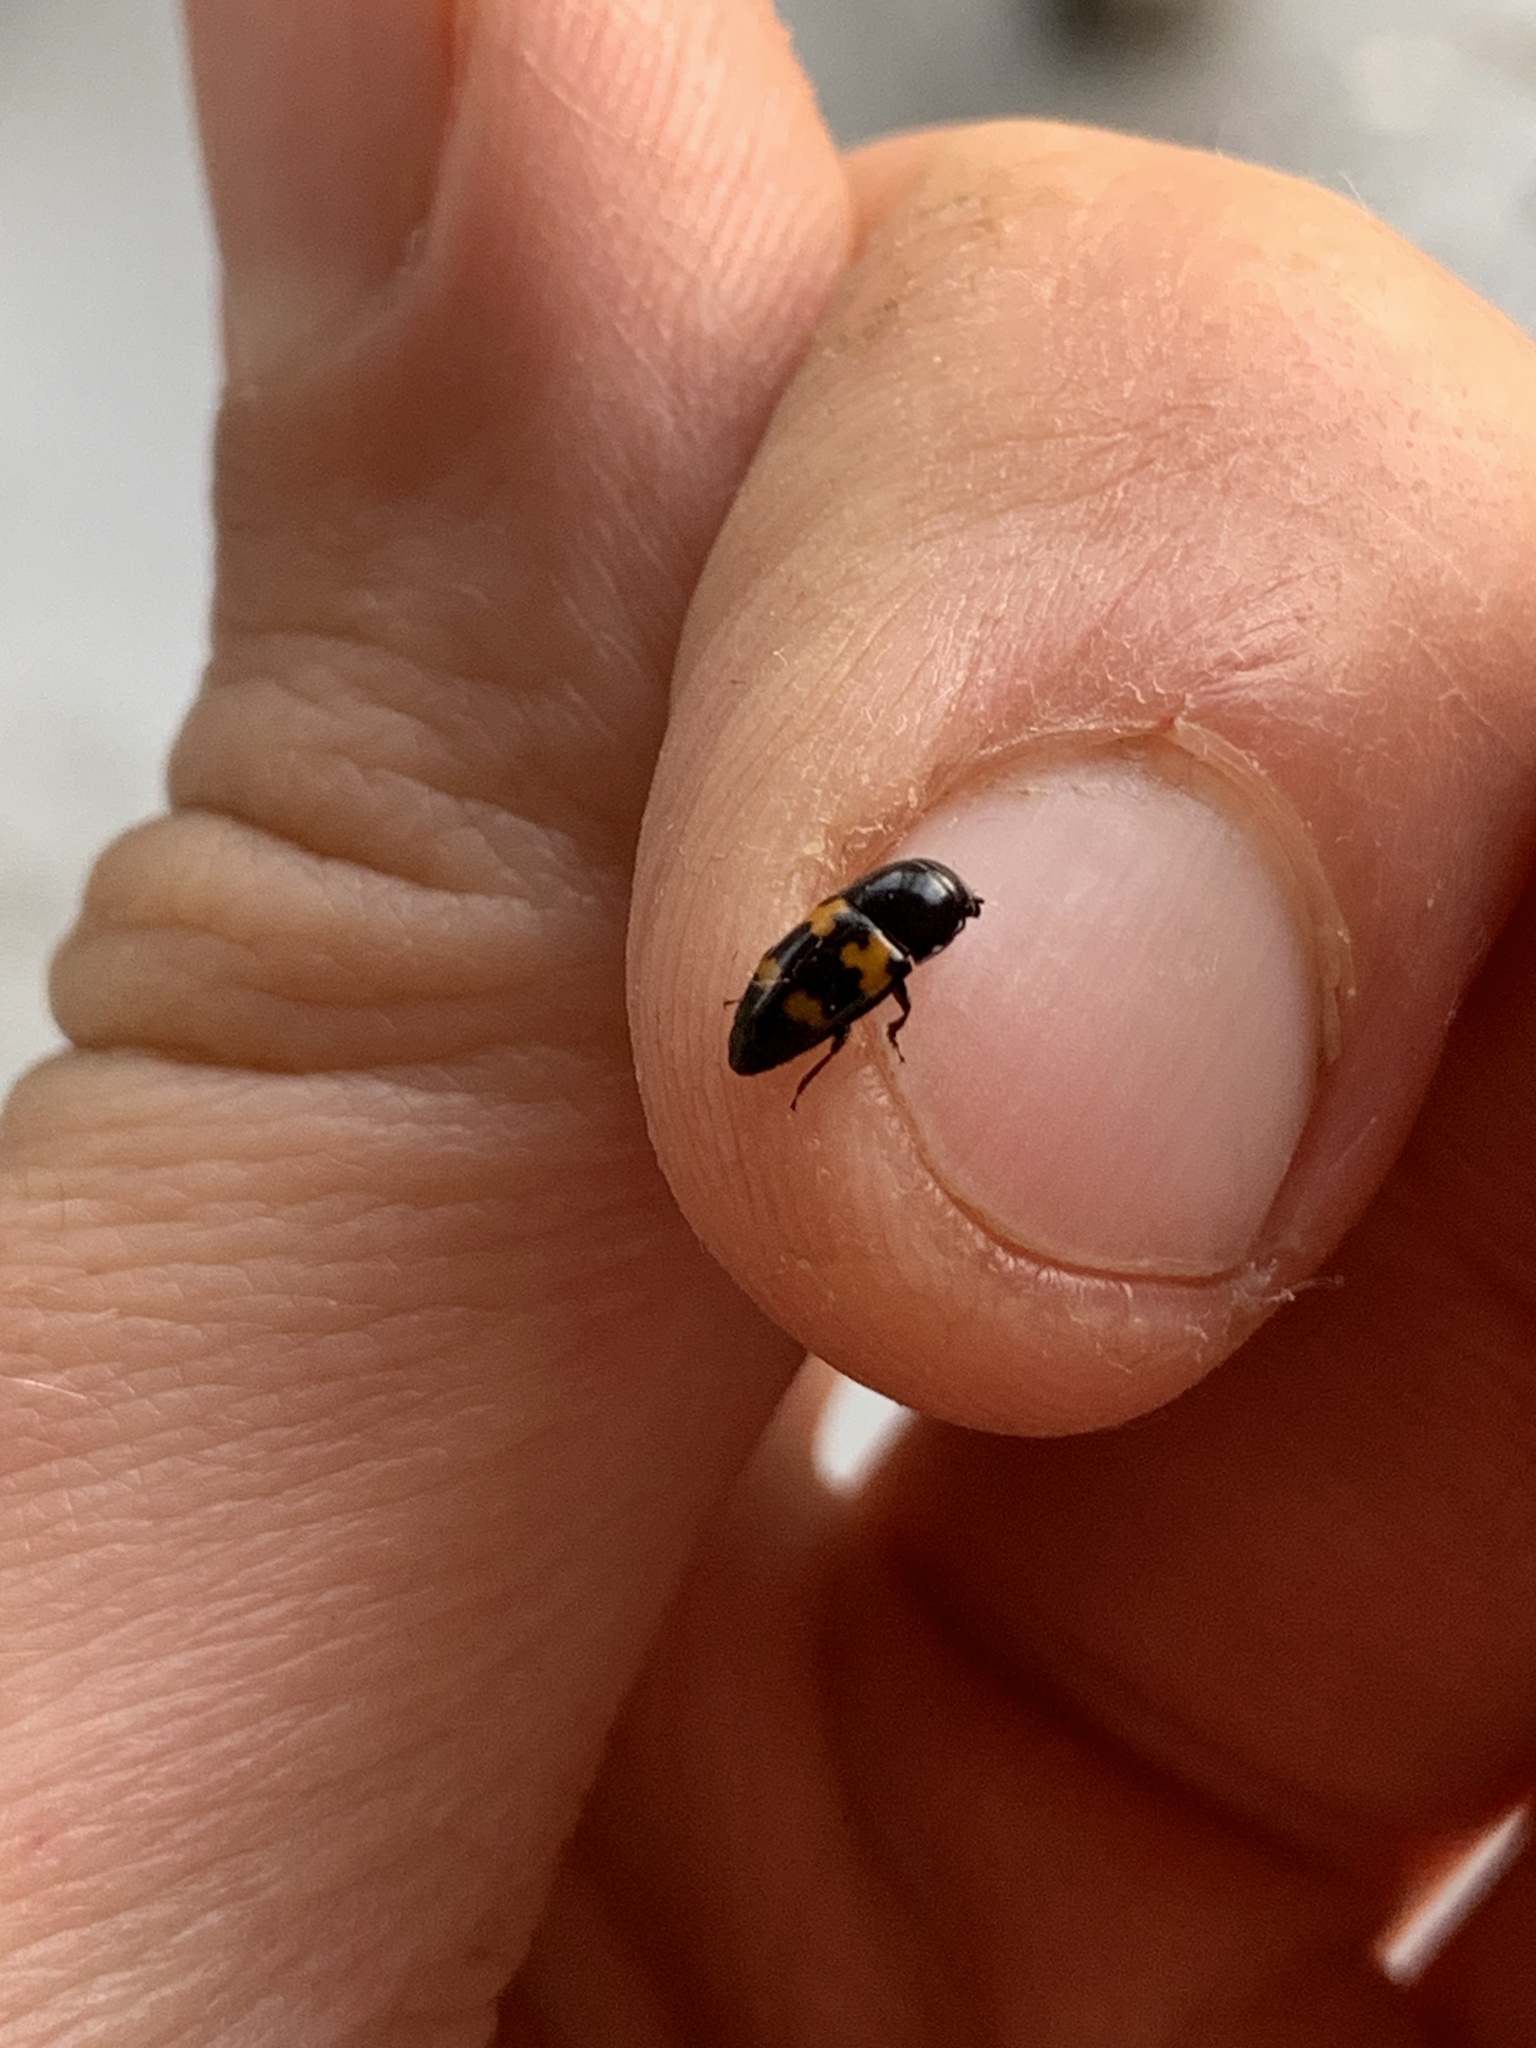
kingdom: Animalia
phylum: Arthropoda
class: Insecta
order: Coleoptera
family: Nitidulidae
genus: Glischrochilus
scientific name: Glischrochilus fasciatus
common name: Picnic beetle
